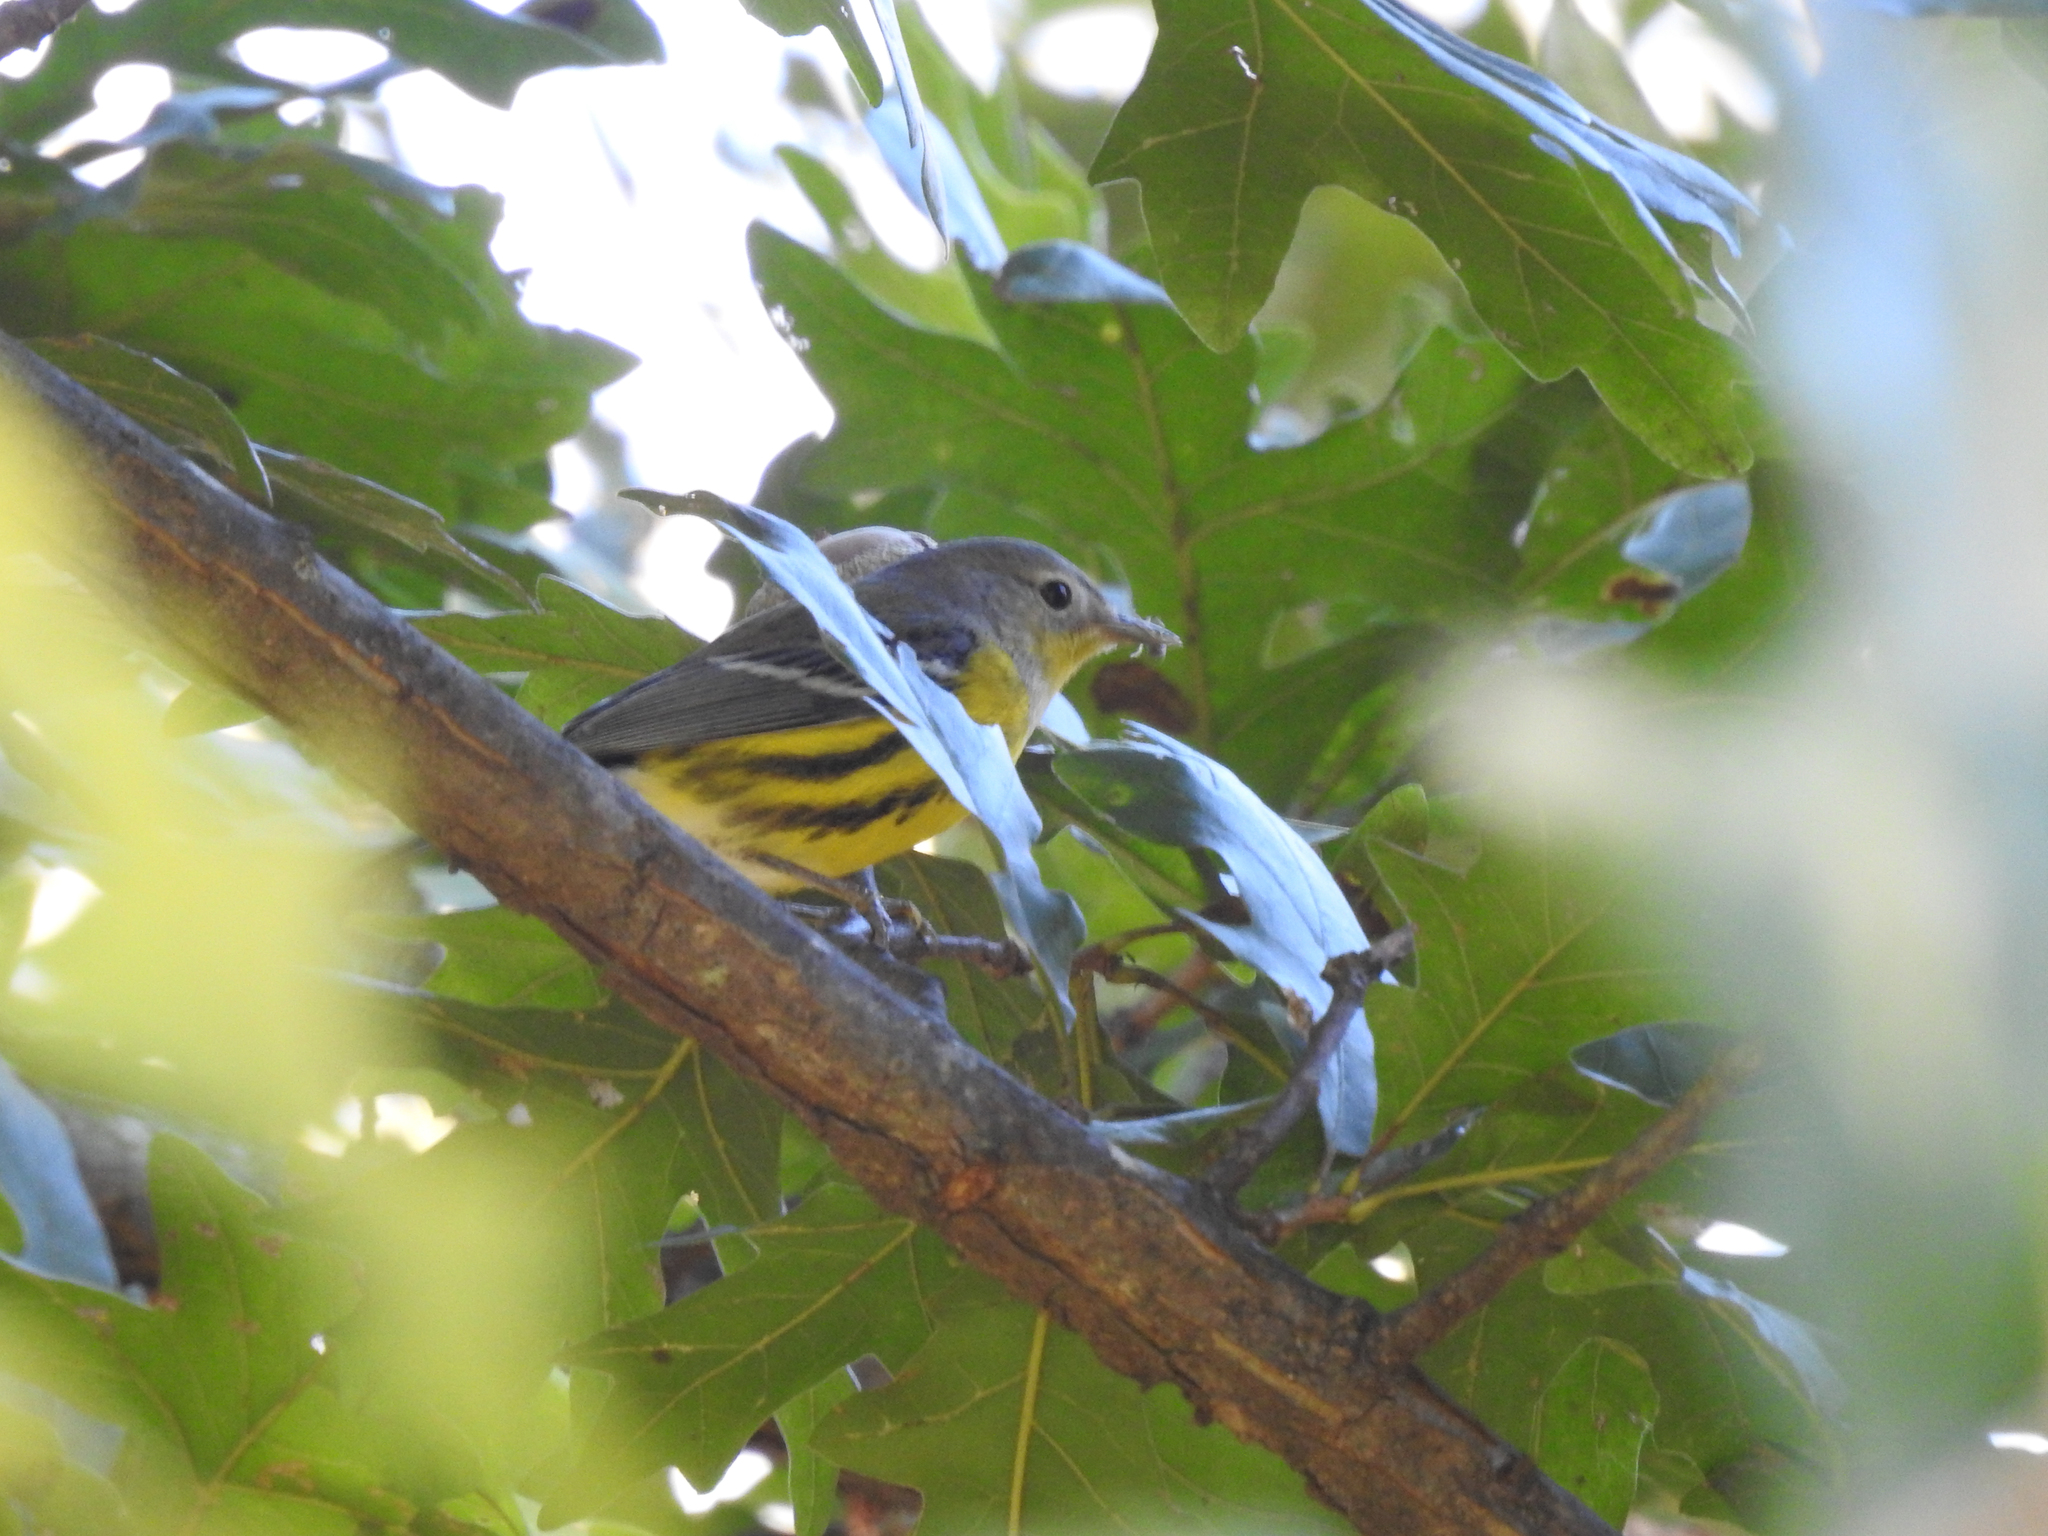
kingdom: Animalia
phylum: Chordata
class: Aves
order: Passeriformes
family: Parulidae
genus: Setophaga
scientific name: Setophaga magnolia
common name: Magnolia warbler
